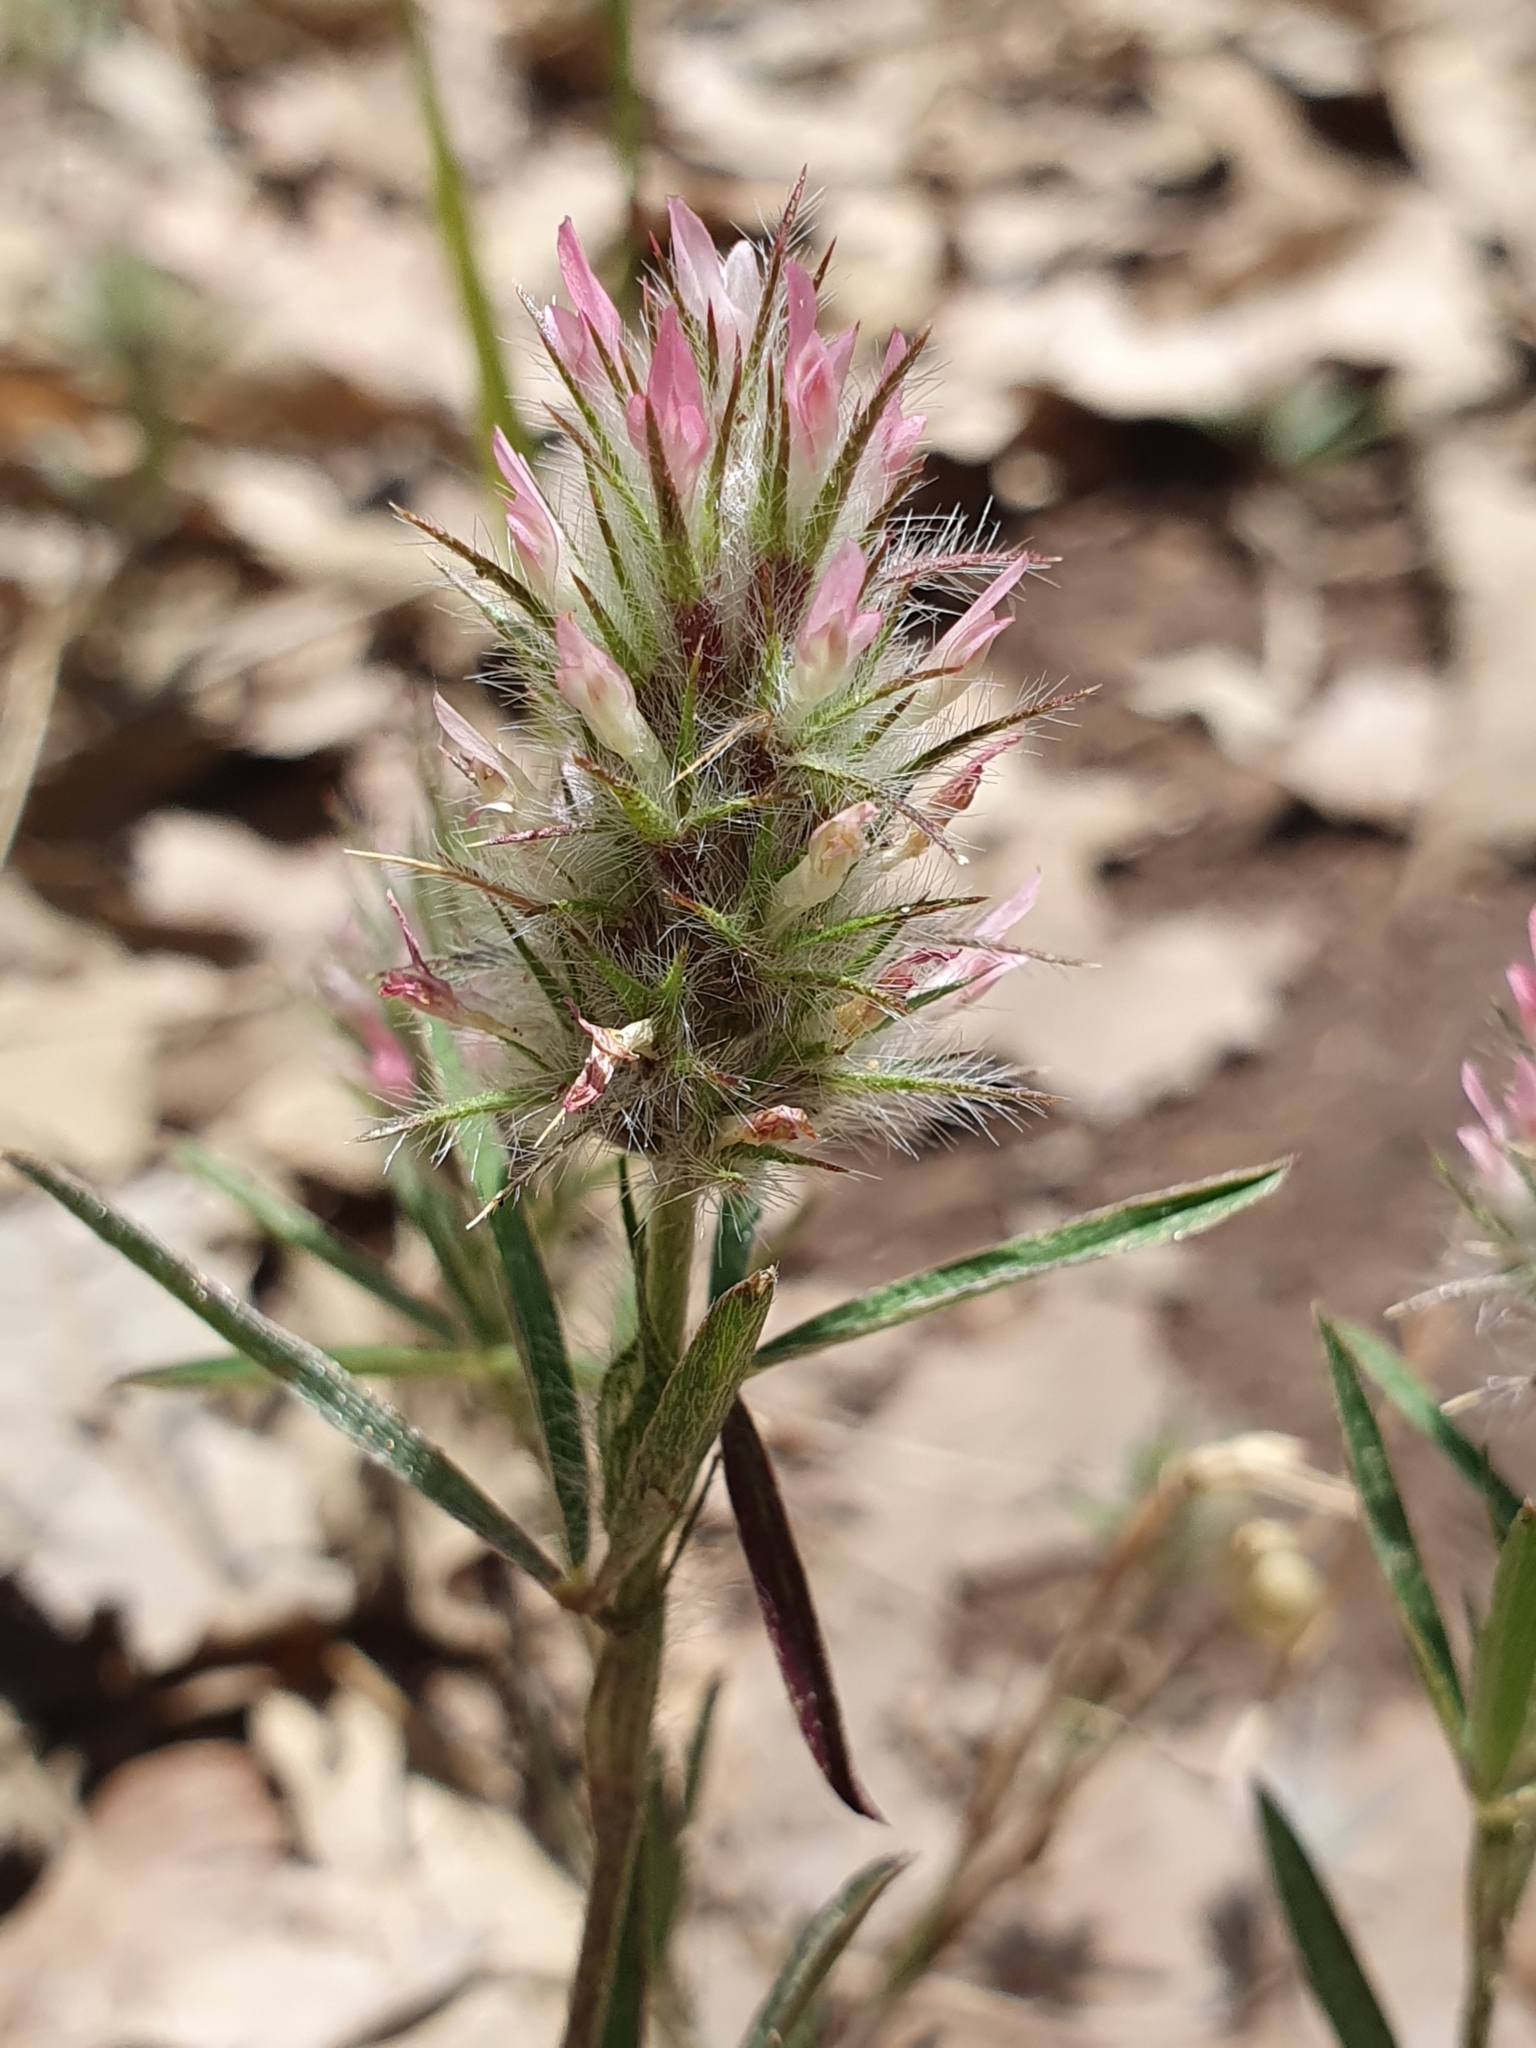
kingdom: Plantae
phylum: Tracheophyta
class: Magnoliopsida
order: Fabales
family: Fabaceae
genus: Trifolium
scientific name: Trifolium angustifolium
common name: Narrow clover
